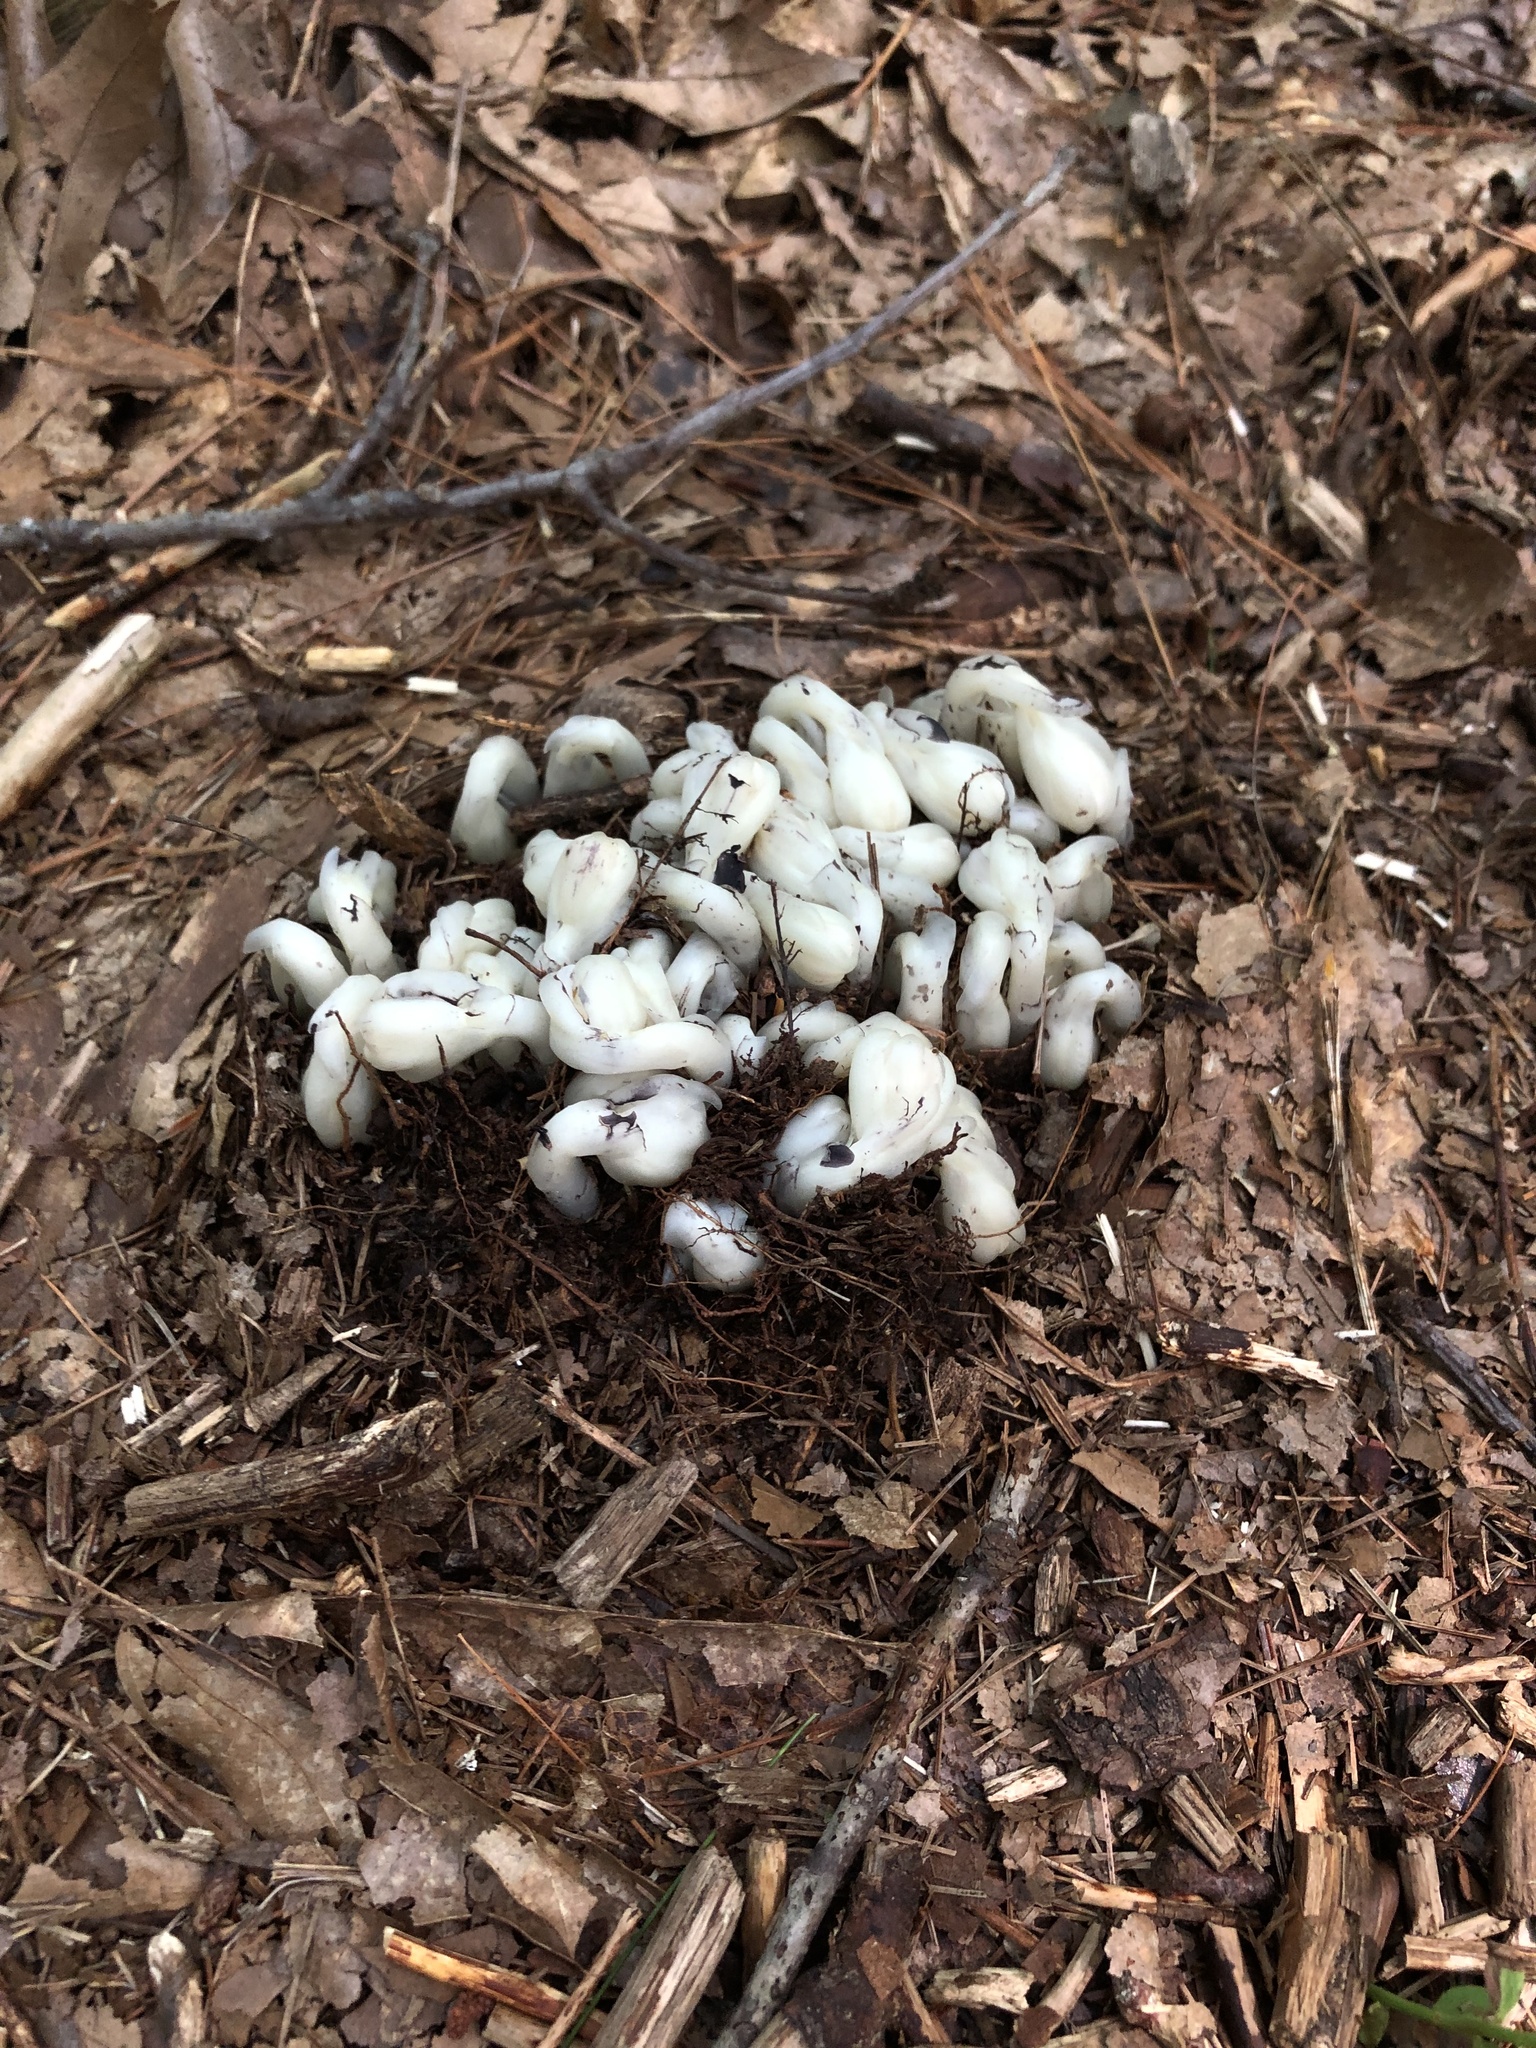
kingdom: Plantae
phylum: Tracheophyta
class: Magnoliopsida
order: Ericales
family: Ericaceae
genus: Monotropa
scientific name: Monotropa uniflora
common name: Convulsion root
